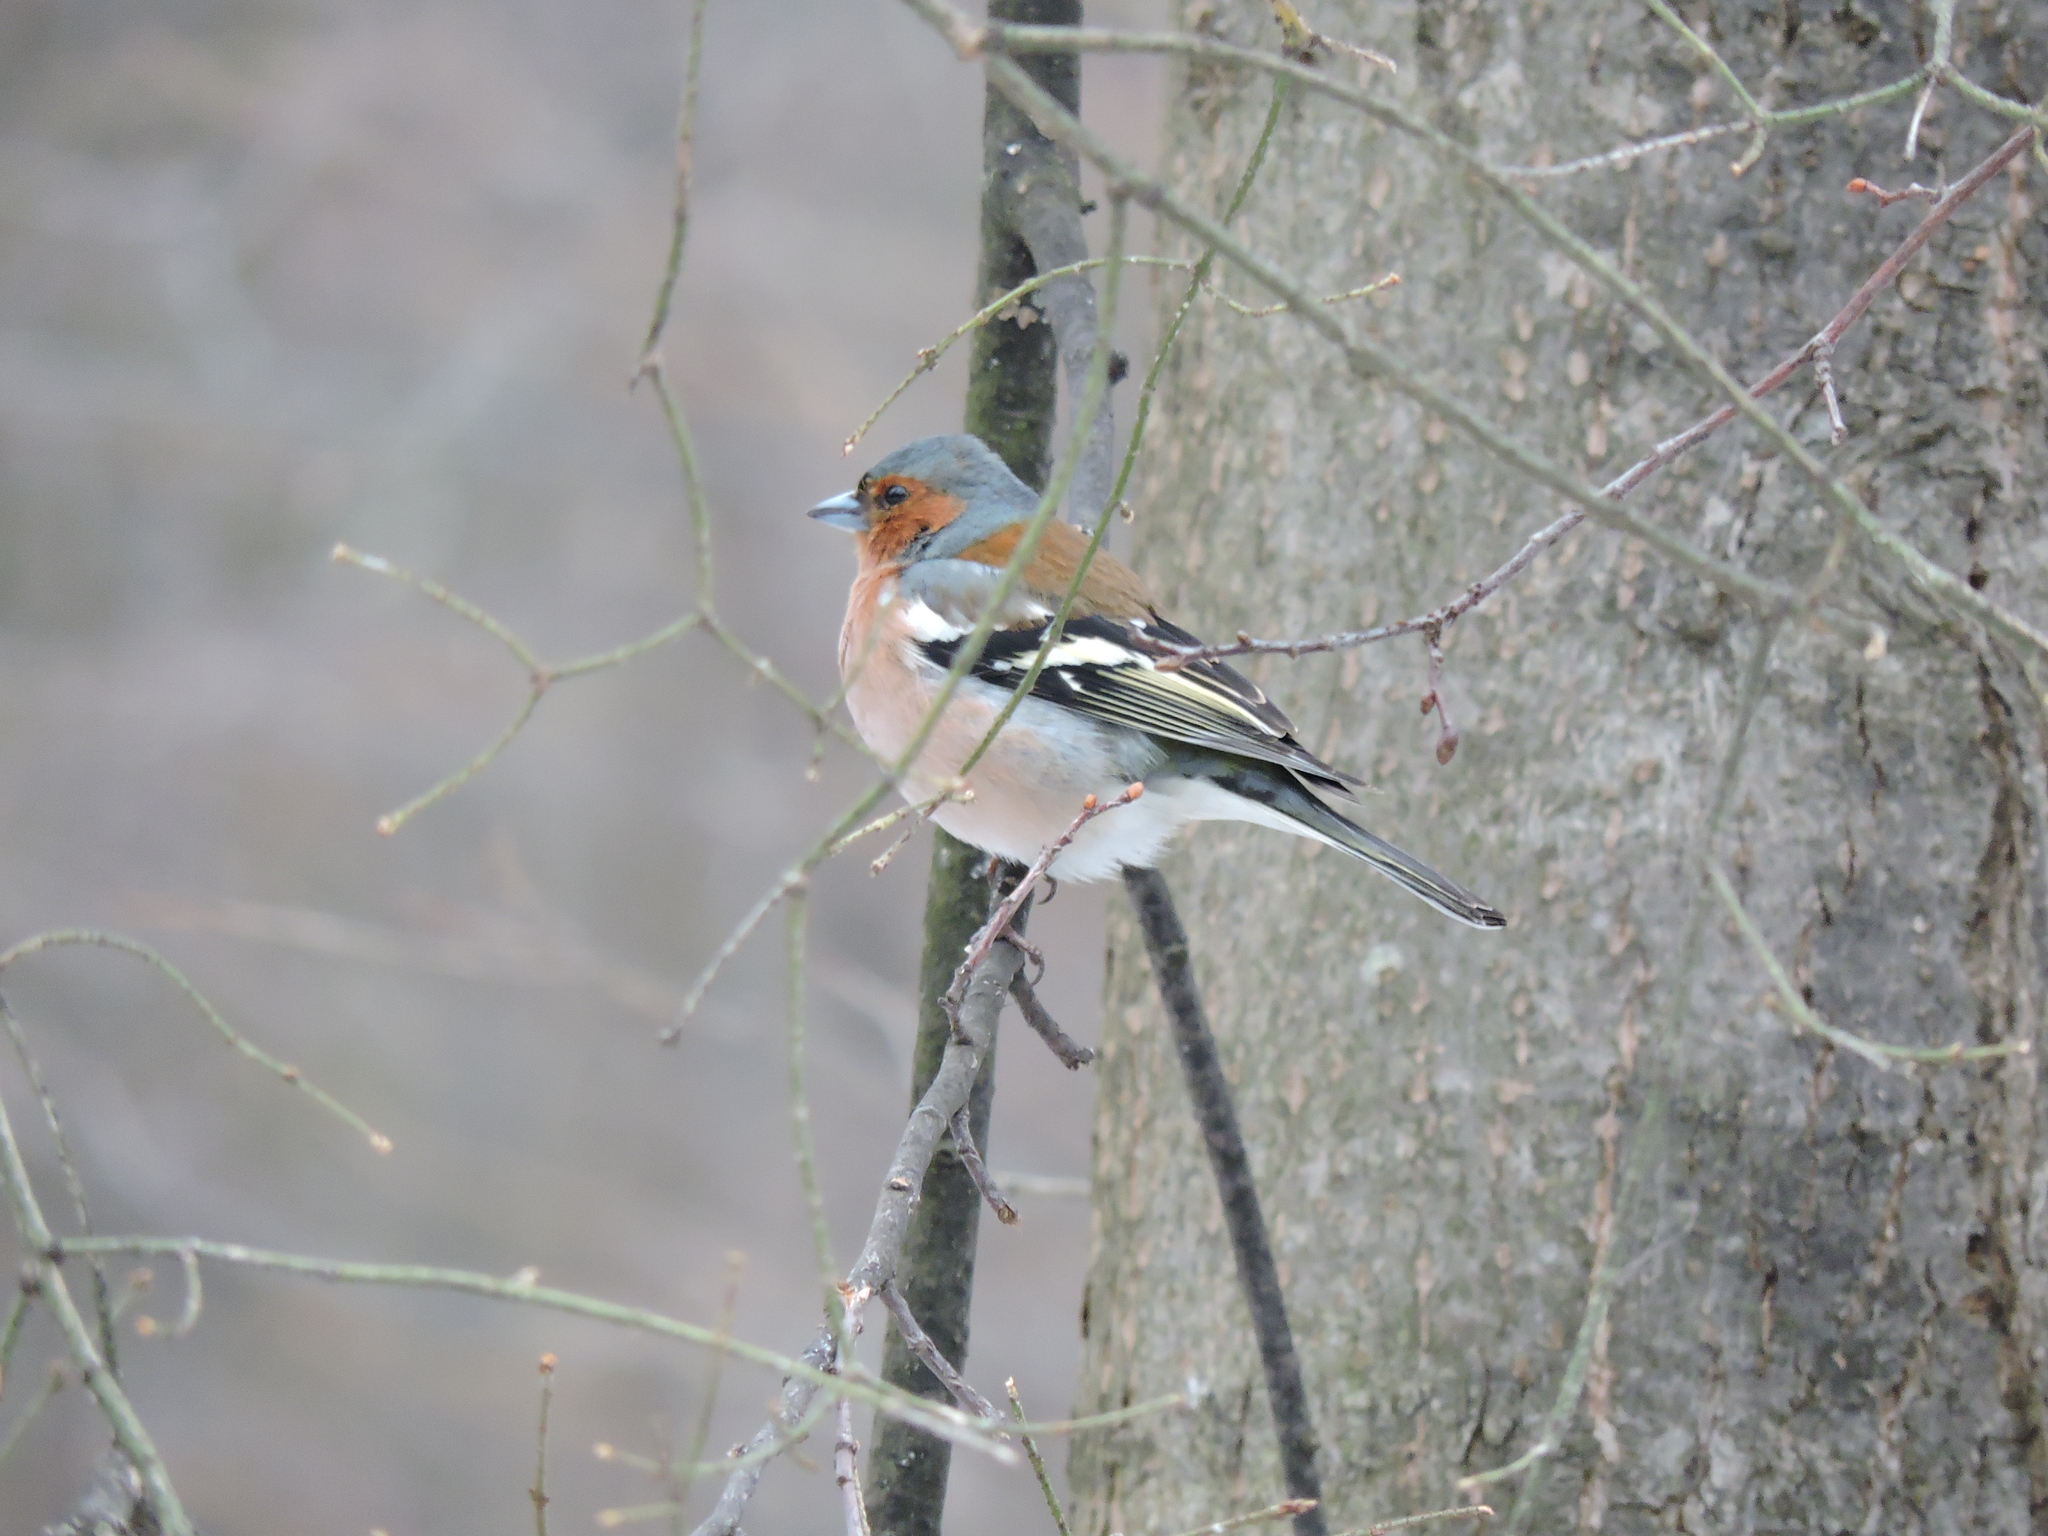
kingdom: Animalia
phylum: Chordata
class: Aves
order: Passeriformes
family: Fringillidae
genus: Fringilla
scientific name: Fringilla coelebs
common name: Common chaffinch
